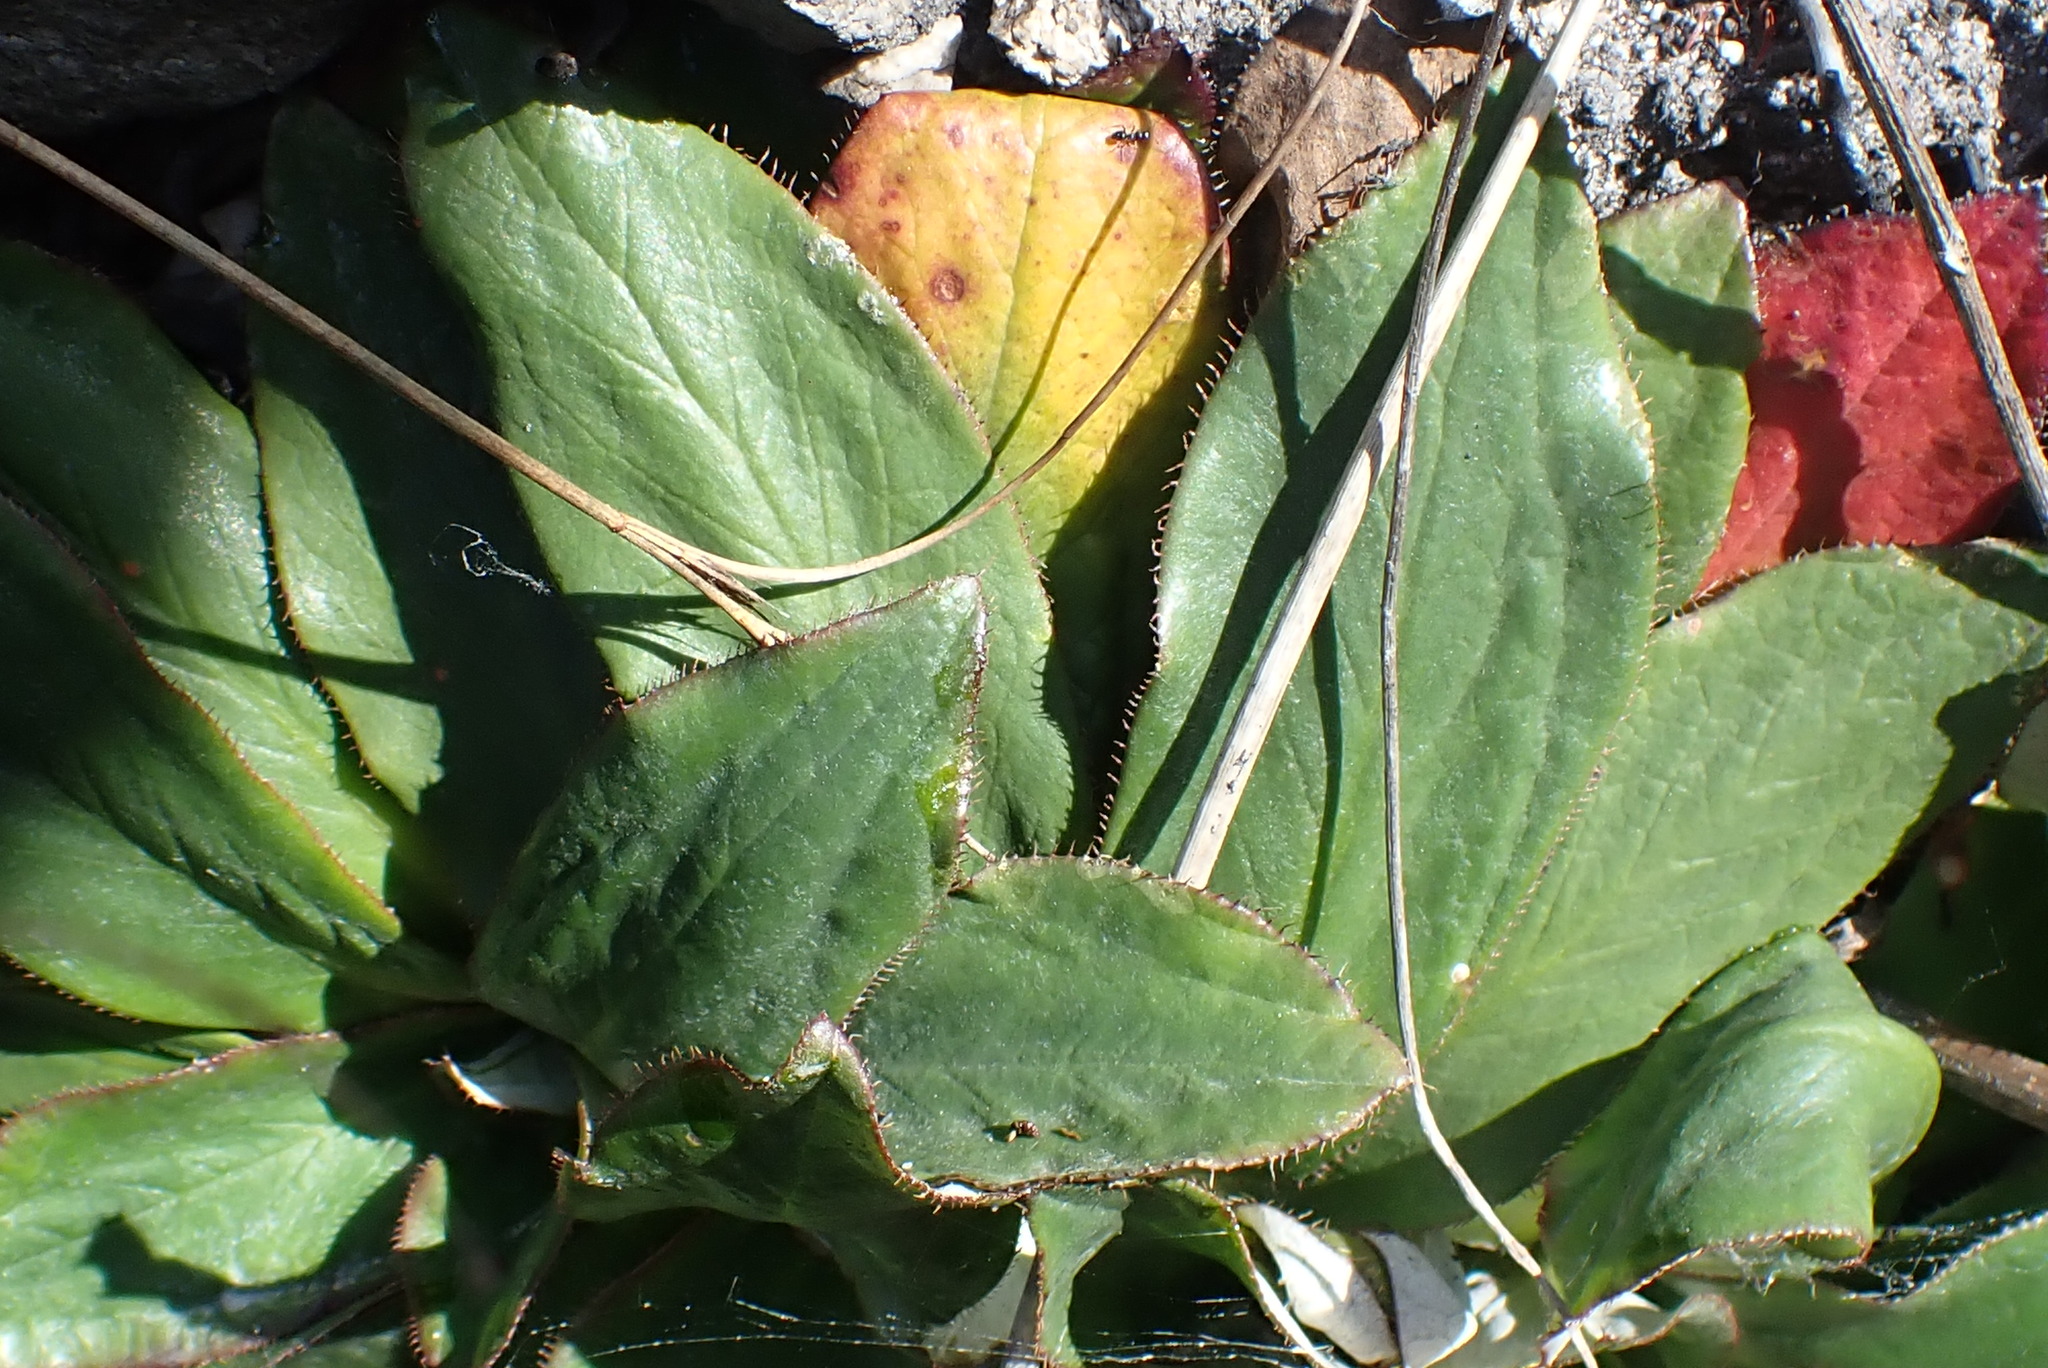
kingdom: Plantae
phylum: Tracheophyta
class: Magnoliopsida
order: Apiales
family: Apiaceae
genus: Hermas
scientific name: Hermas ciliata
